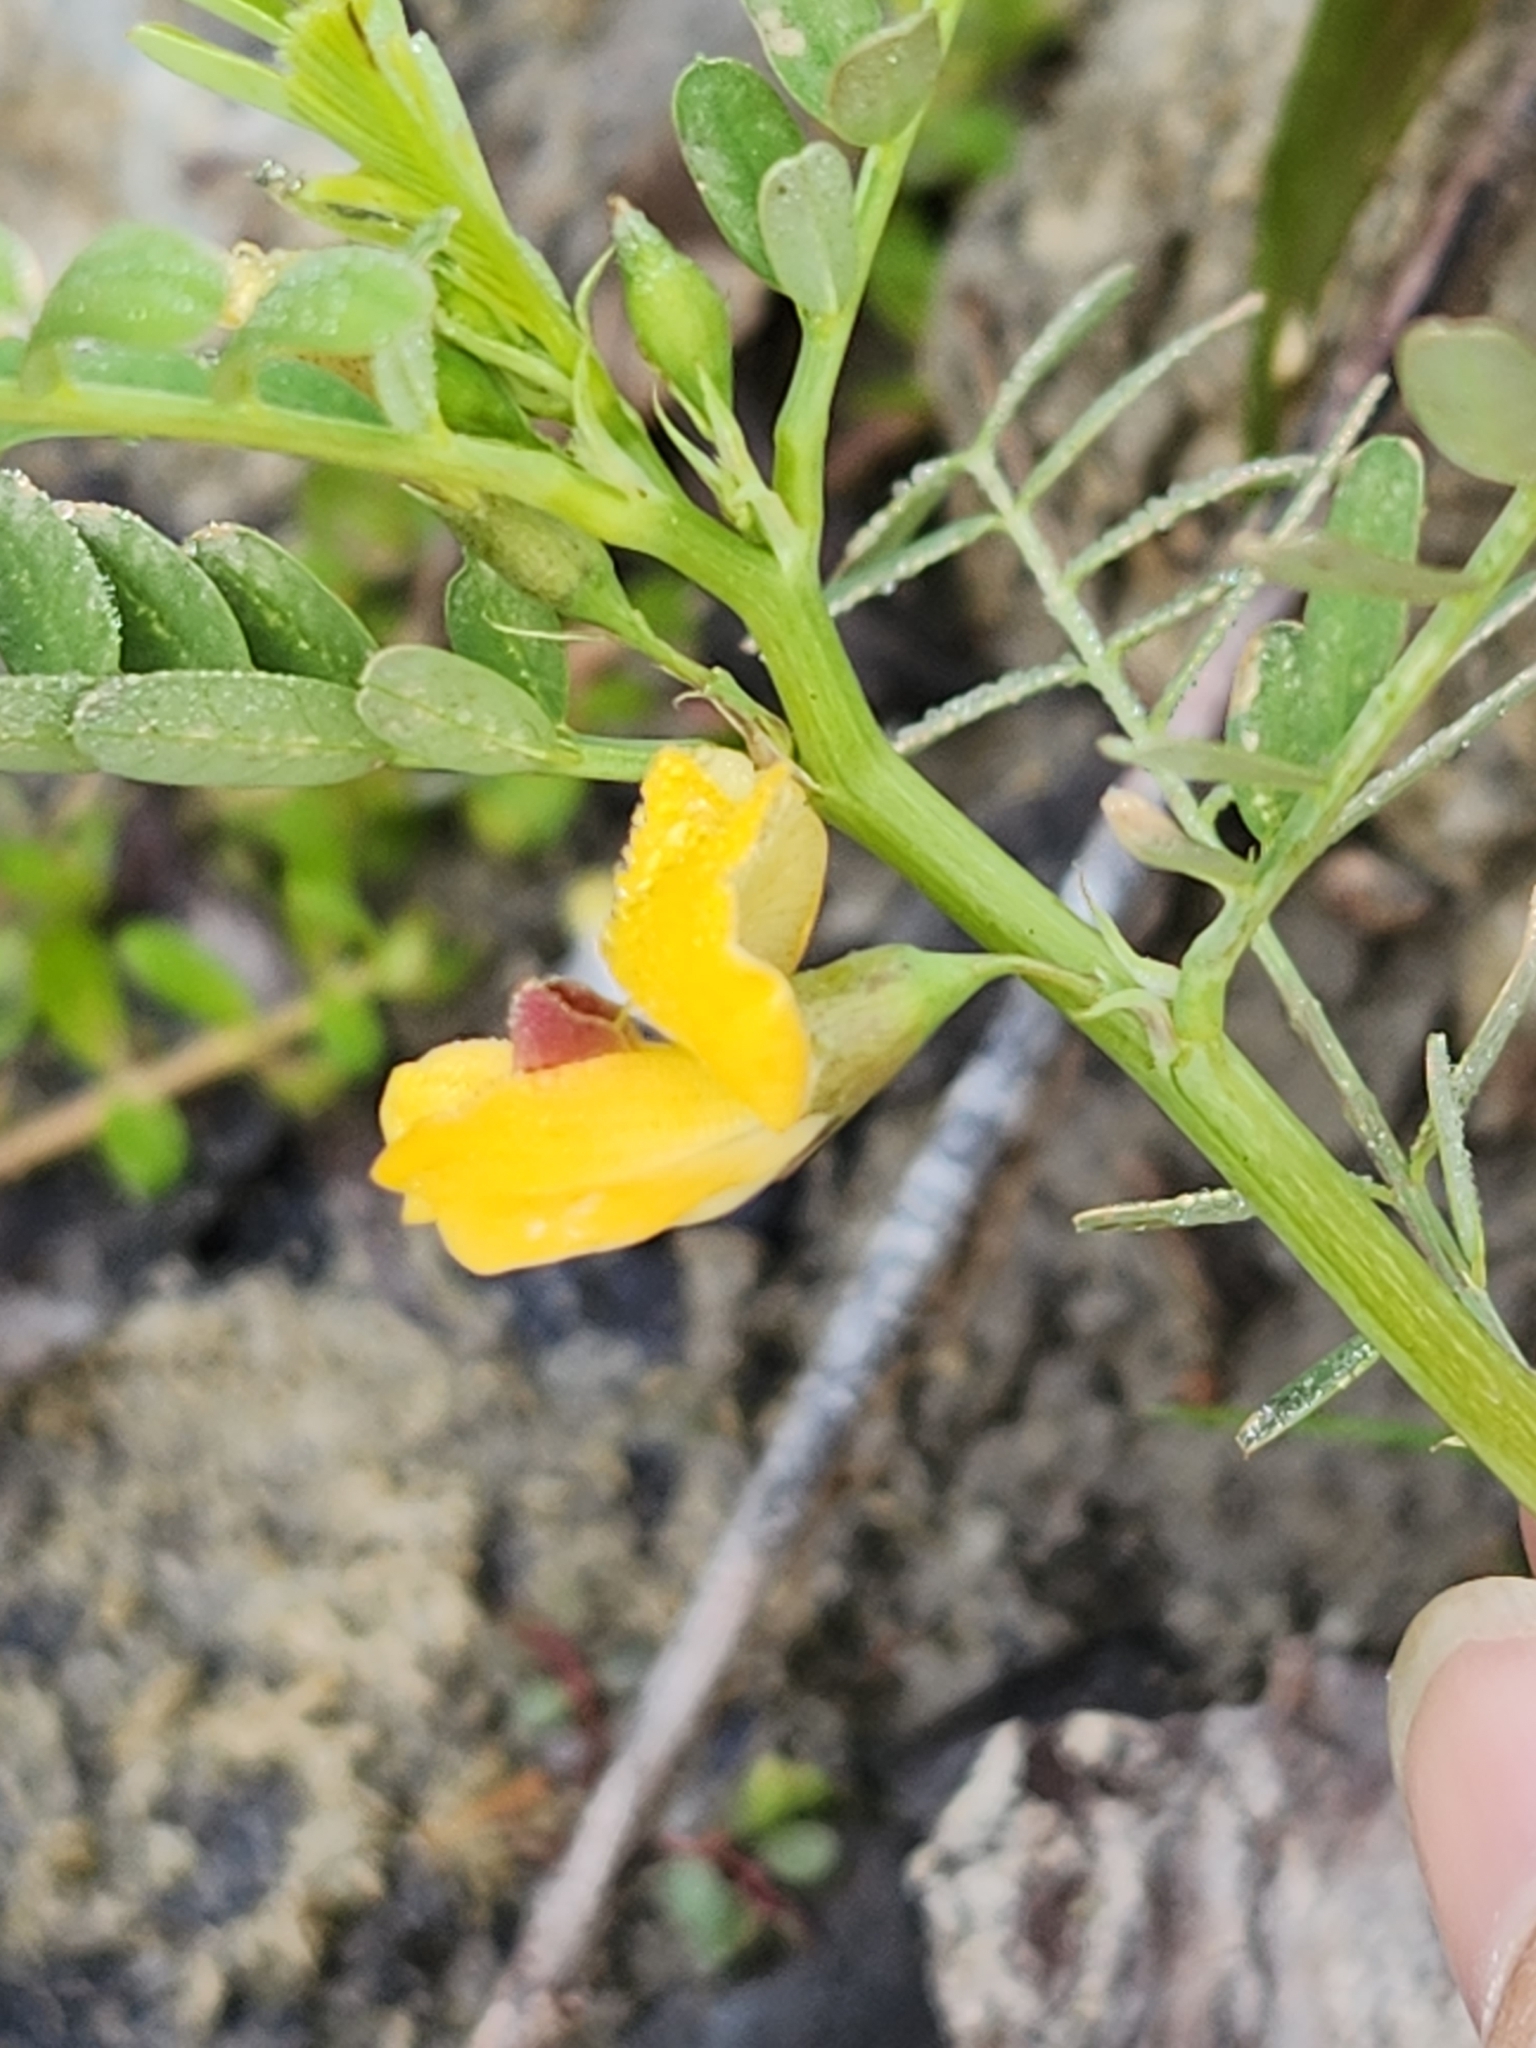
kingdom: Plantae
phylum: Tracheophyta
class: Magnoliopsida
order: Fabales
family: Fabaceae
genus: Sesbania
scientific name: Sesbania herbacea
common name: Bigpod sesbania
